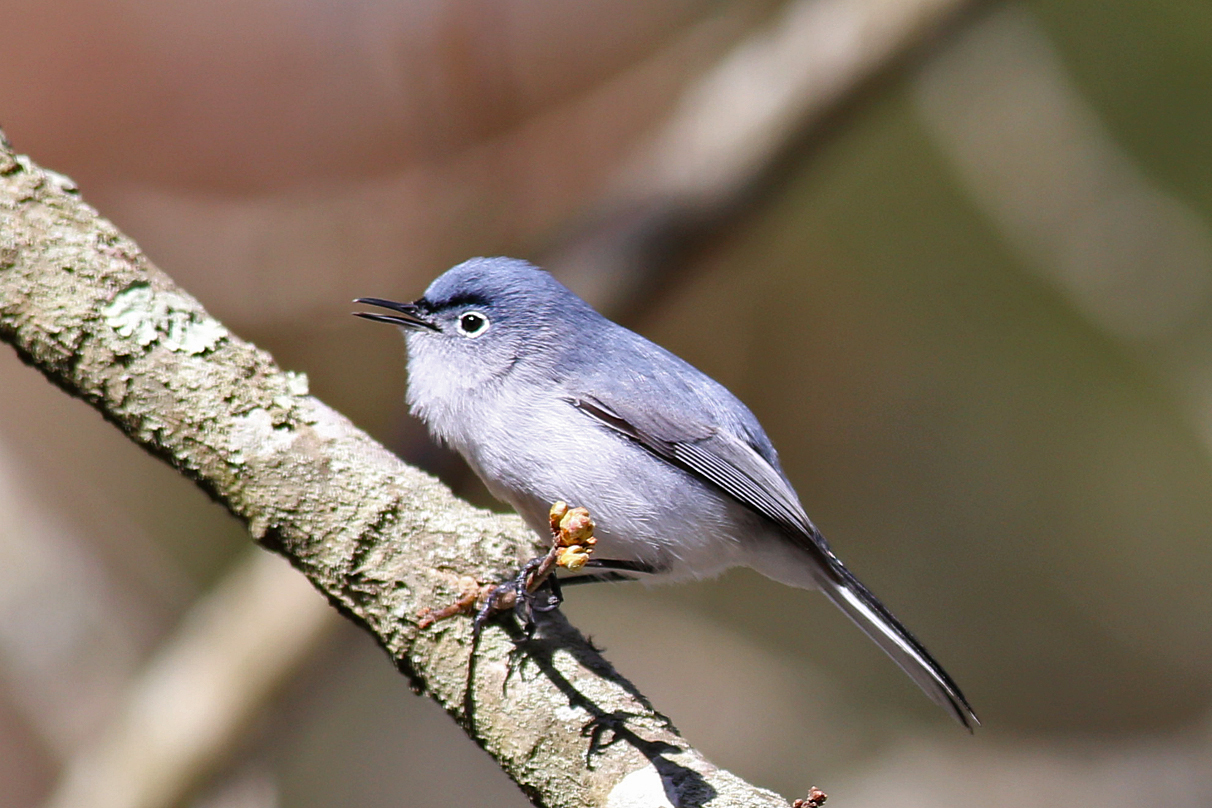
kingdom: Animalia
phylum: Chordata
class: Aves
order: Passeriformes
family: Polioptilidae
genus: Polioptila
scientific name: Polioptila caerulea
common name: Blue-gray gnatcatcher
